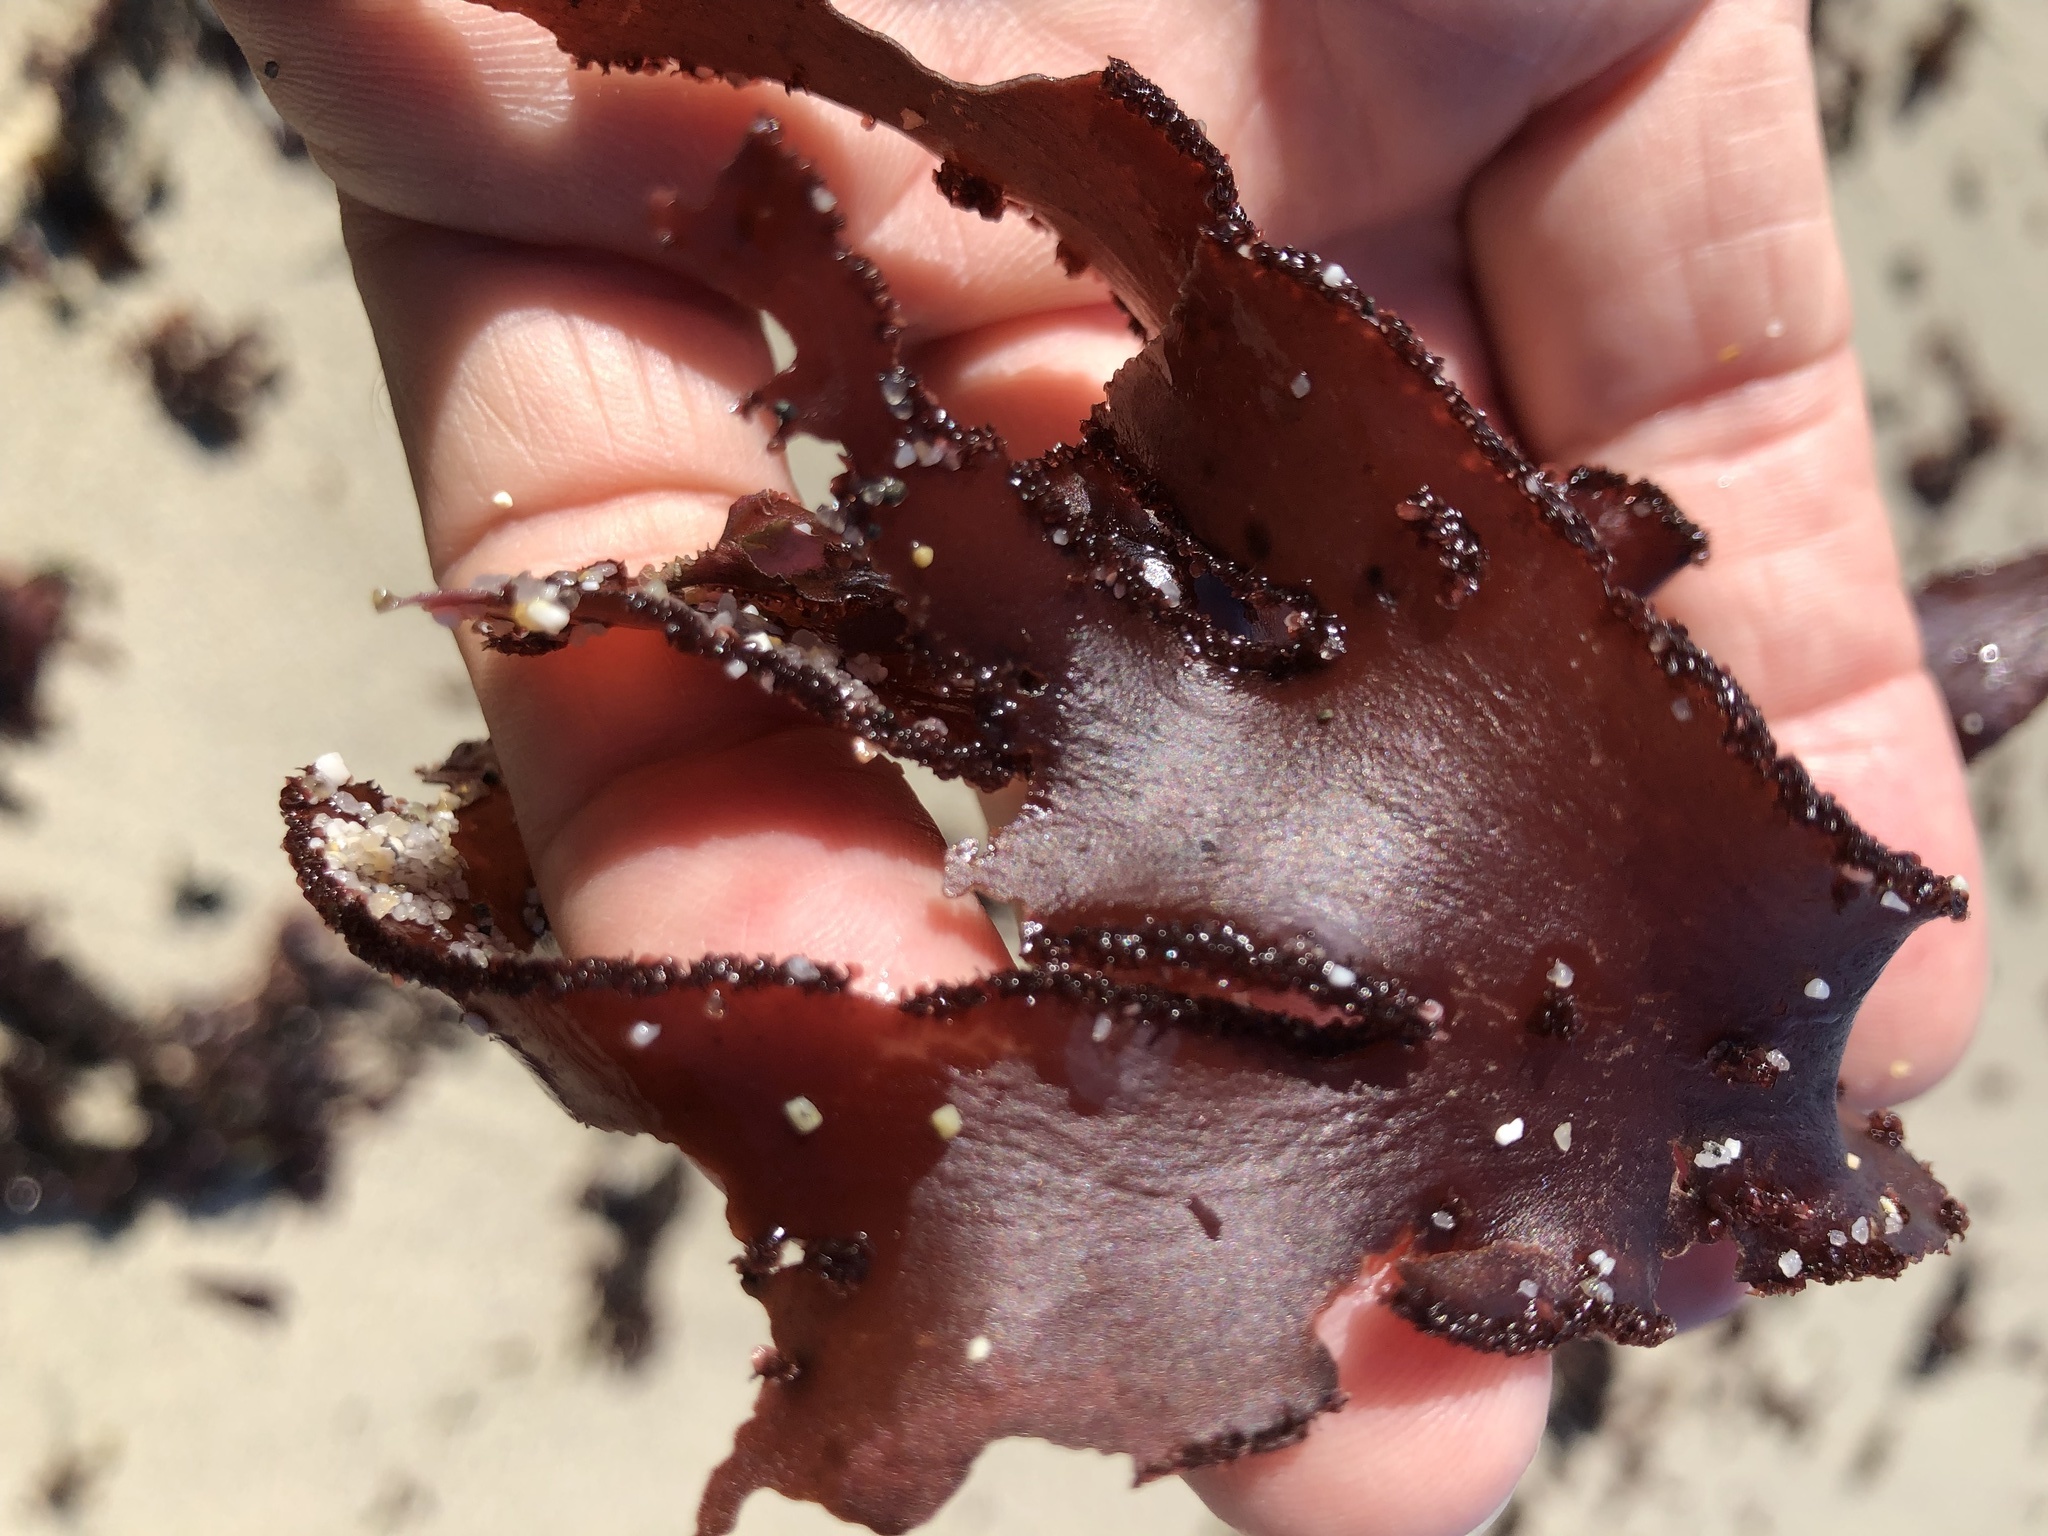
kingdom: Plantae
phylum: Rhodophyta
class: Florideophyceae
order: Ceramiales
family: Delesseriaceae
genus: Cryptopleura
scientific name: Cryptopleura ruprechtiana
